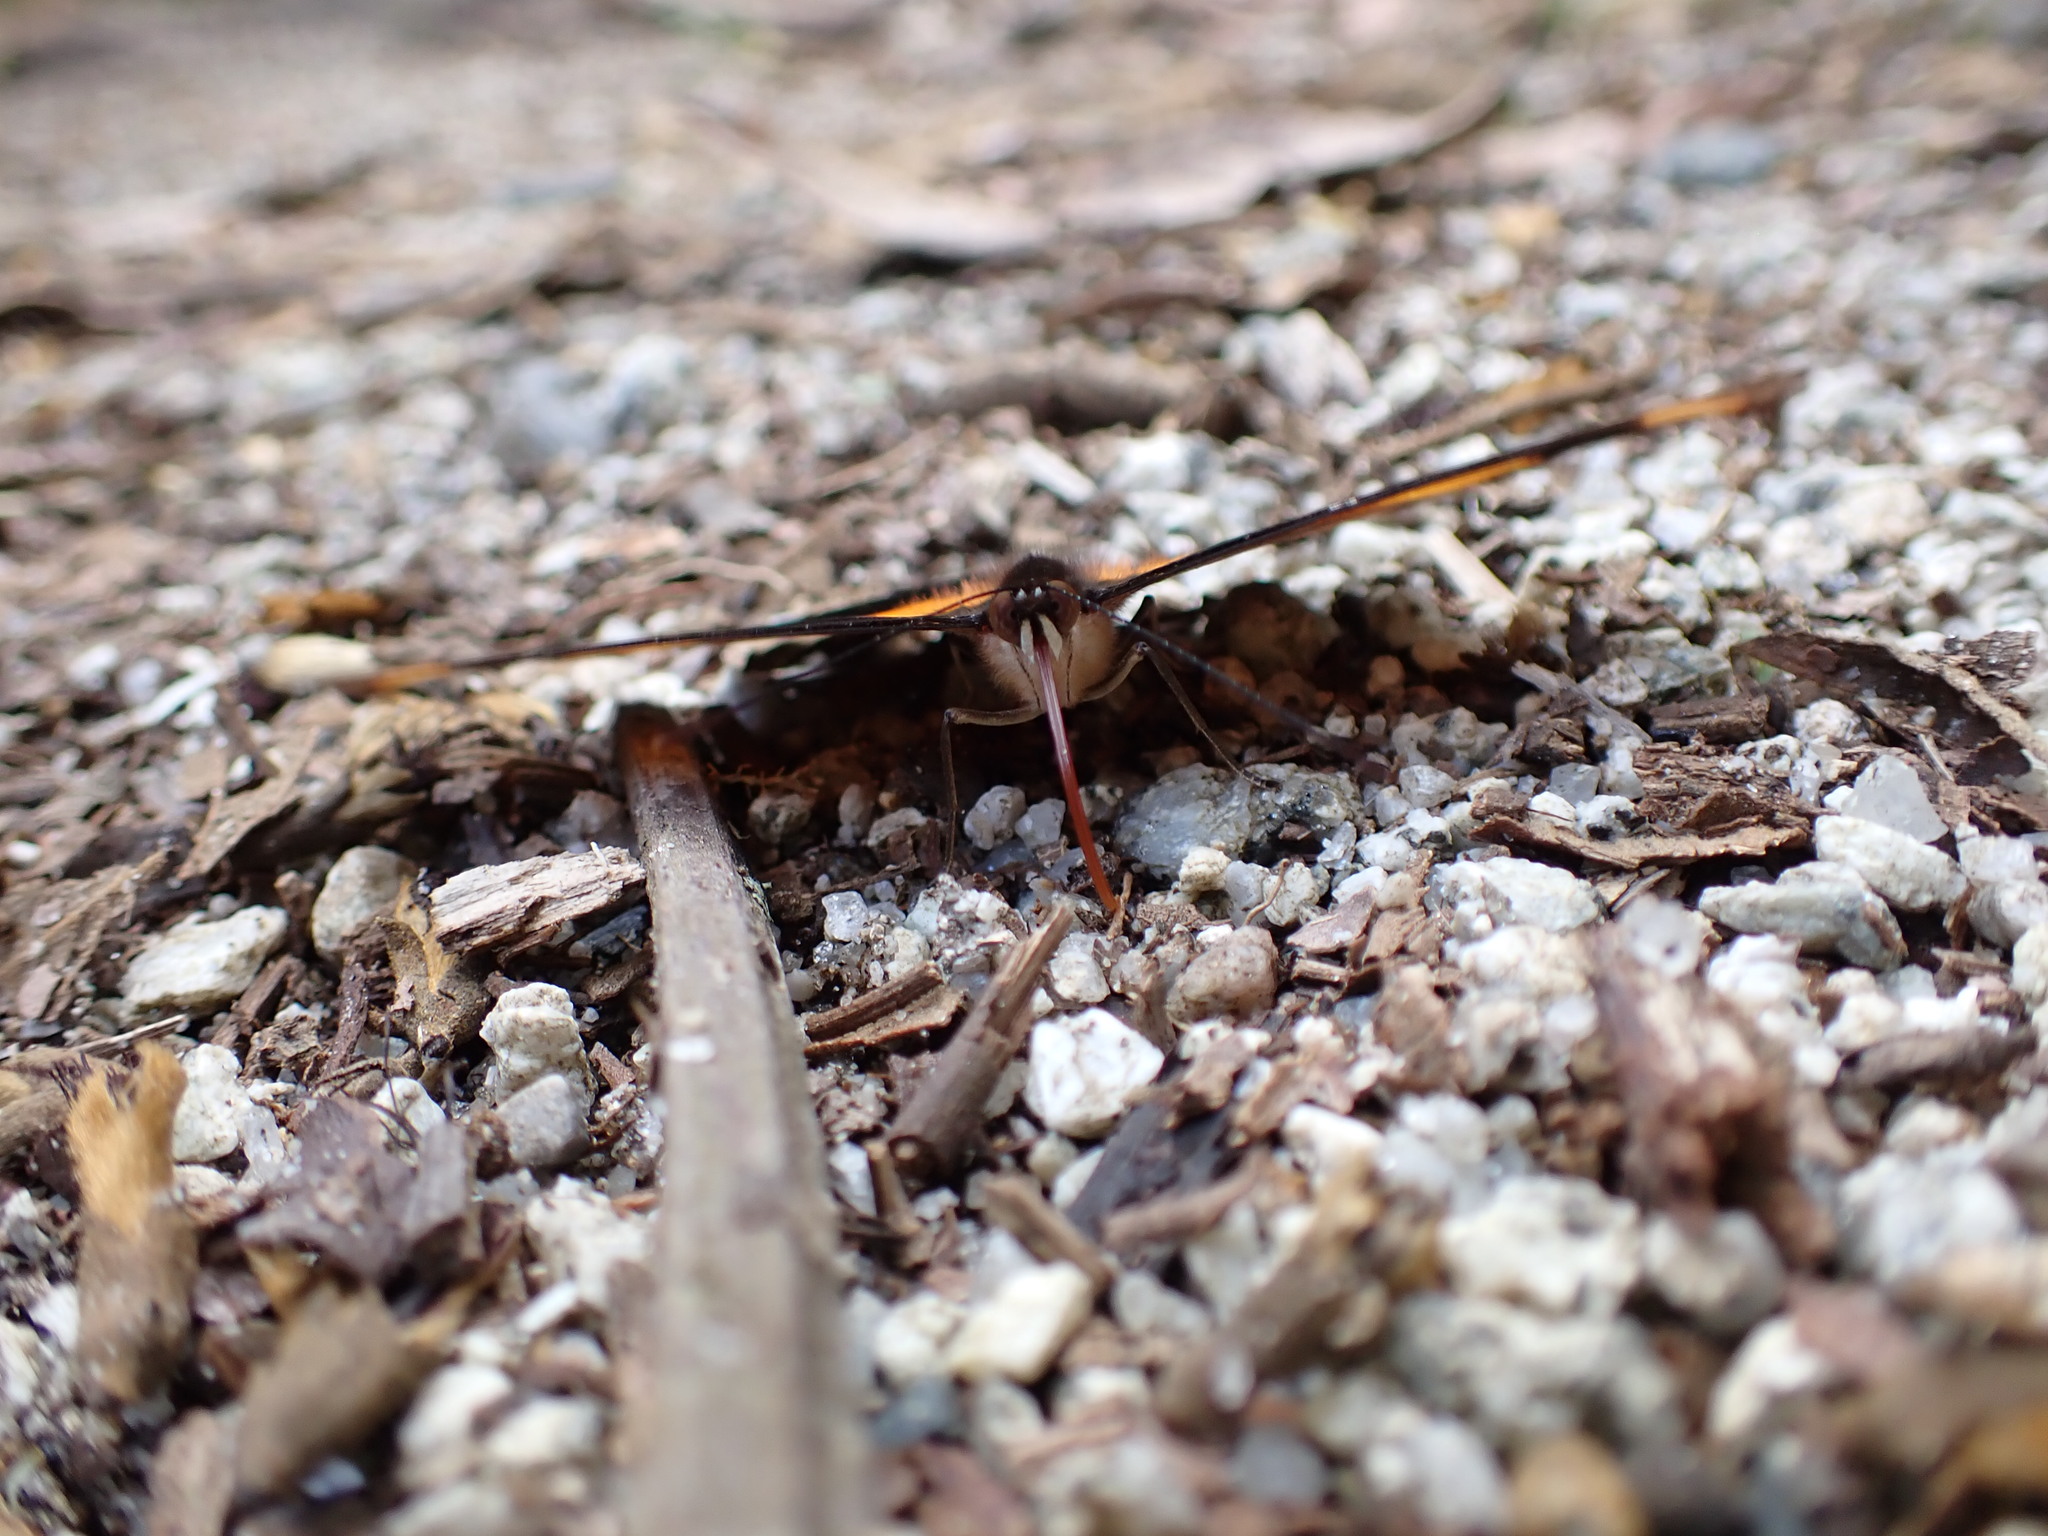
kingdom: Animalia
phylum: Arthropoda
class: Insecta
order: Lepidoptera
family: Nymphalidae
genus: Catonephele
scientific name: Catonephele chromis
